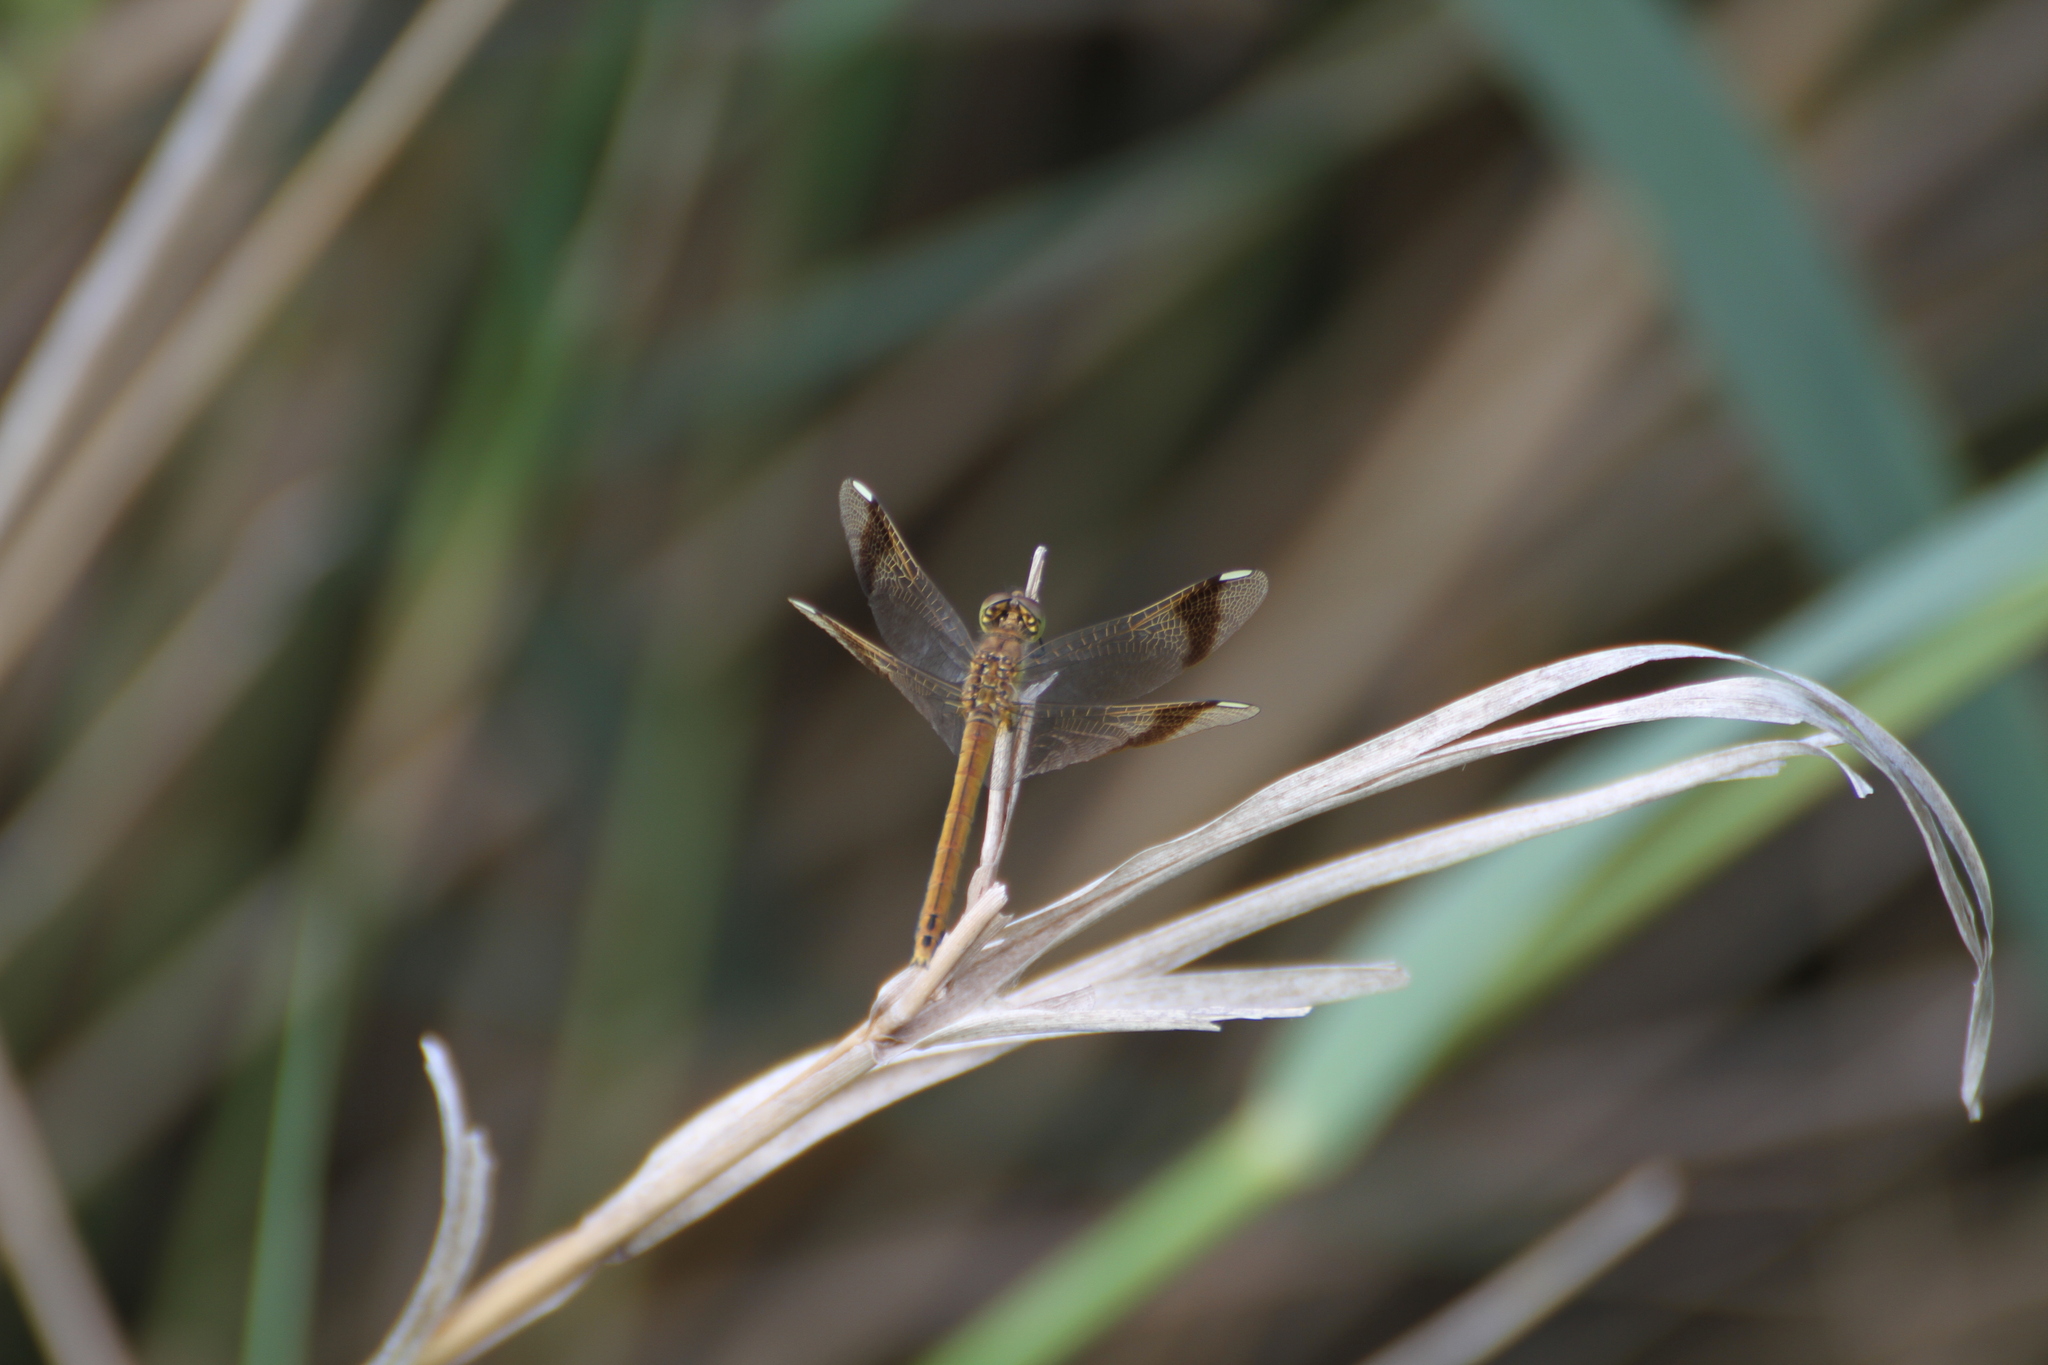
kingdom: Animalia
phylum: Arthropoda
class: Insecta
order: Odonata
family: Libellulidae
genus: Sympetrum
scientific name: Sympetrum pedemontanum
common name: Banded darter
